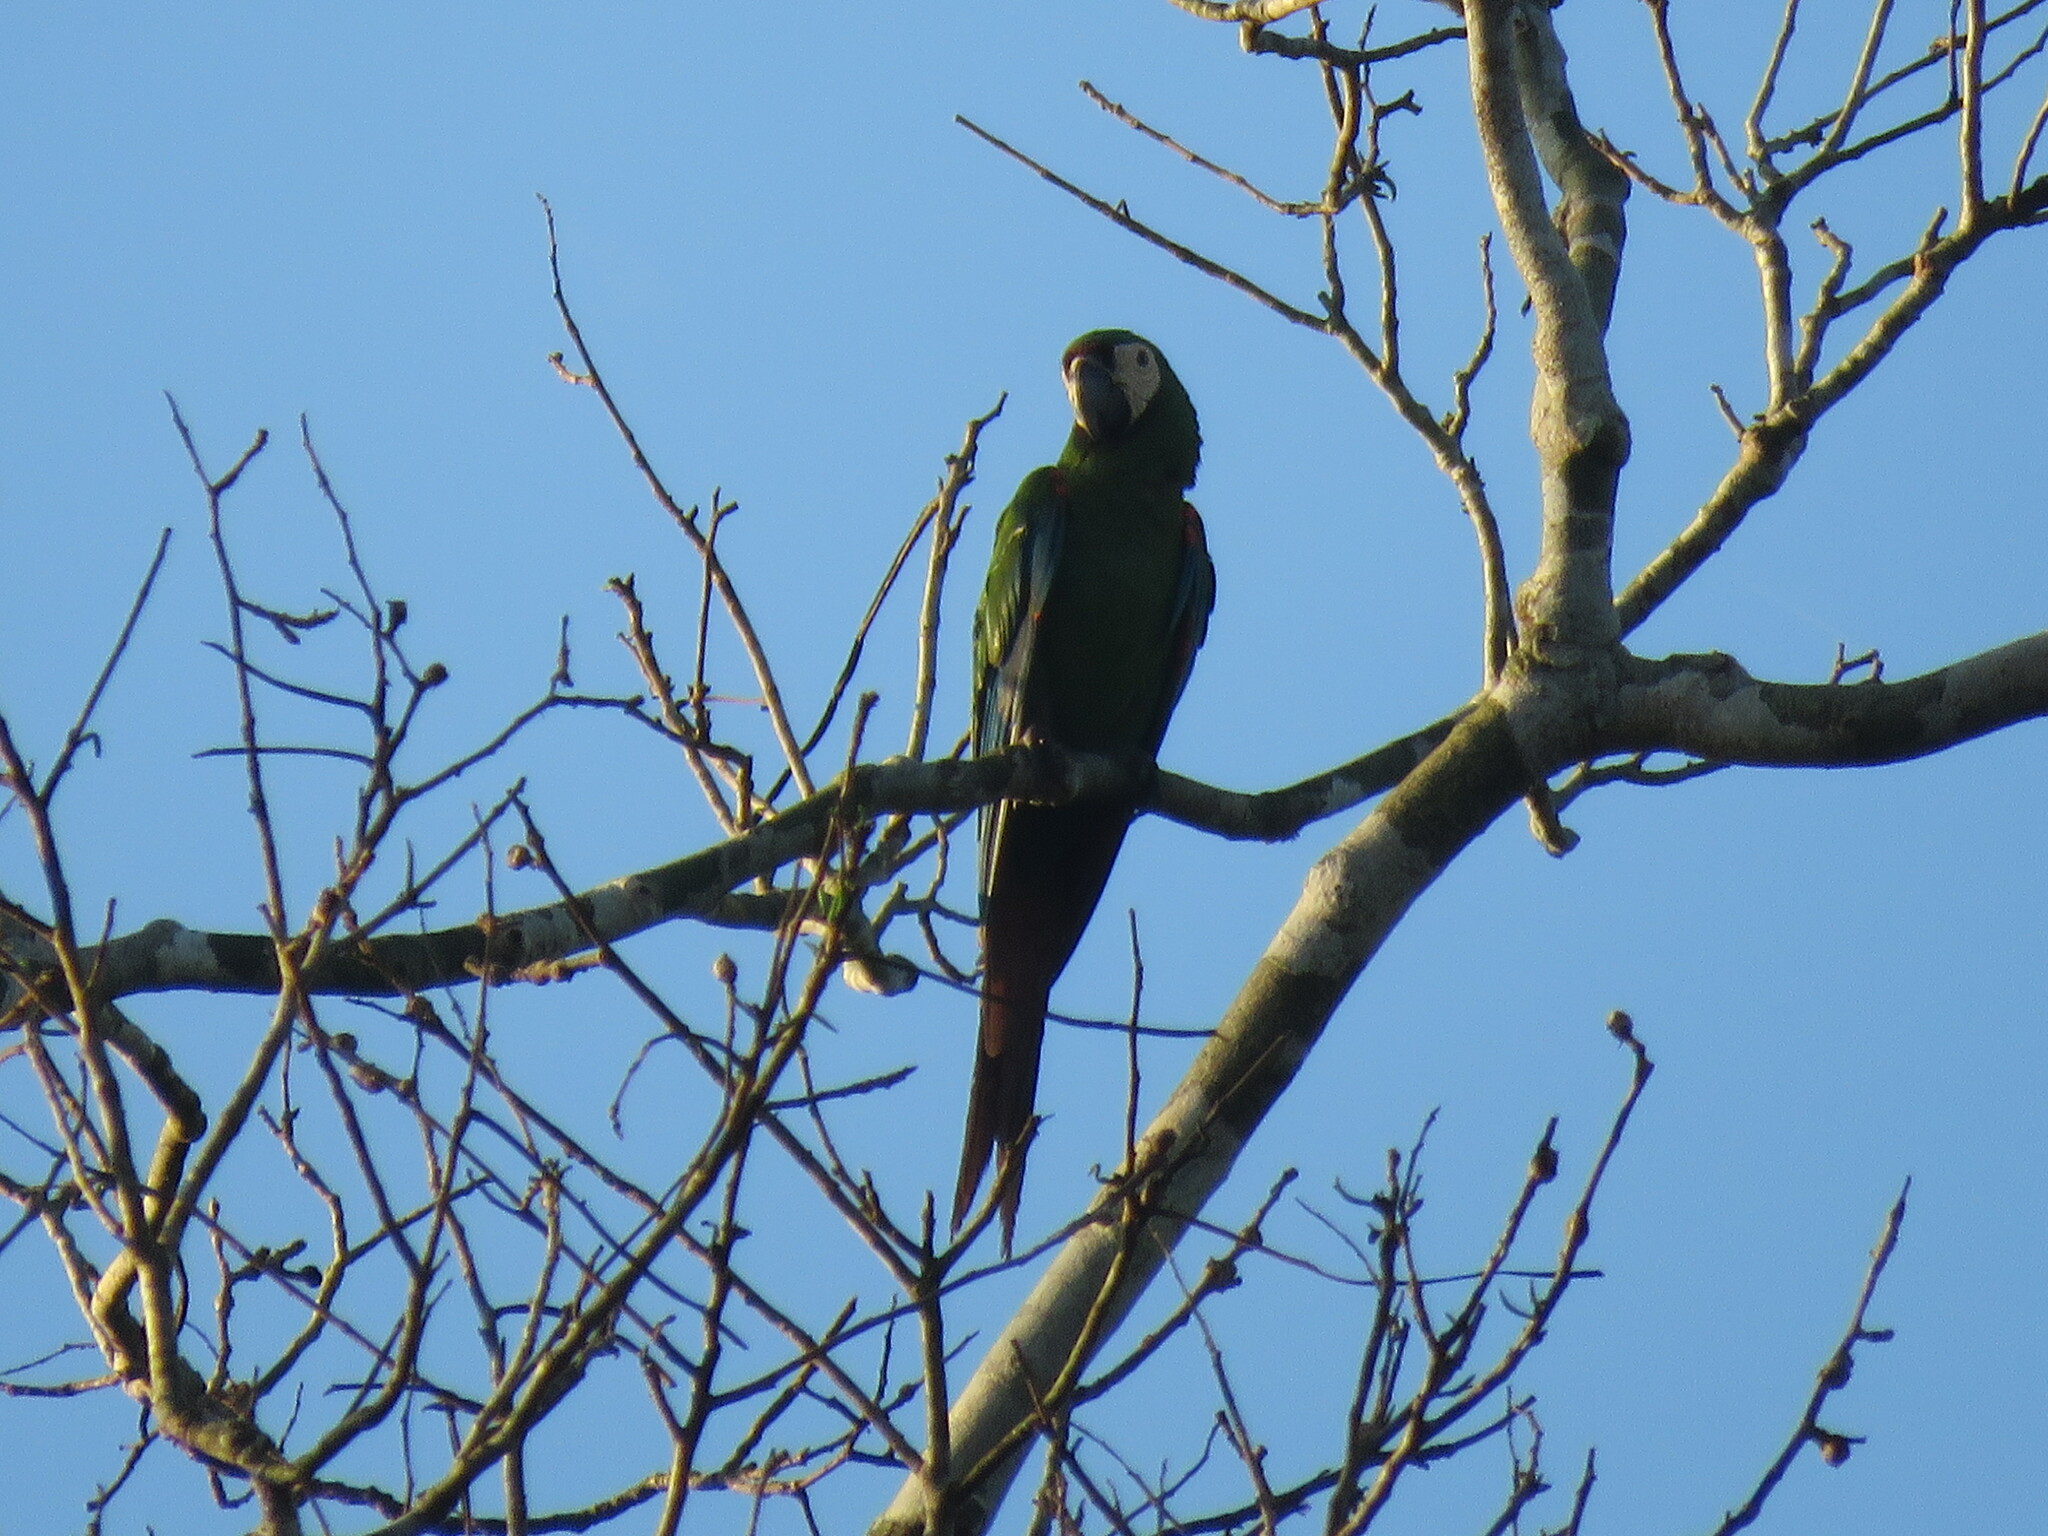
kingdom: Animalia
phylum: Chordata
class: Aves
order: Psittaciformes
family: Psittacidae
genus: Ara
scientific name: Ara severus
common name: Chestnut-fronted macaw
